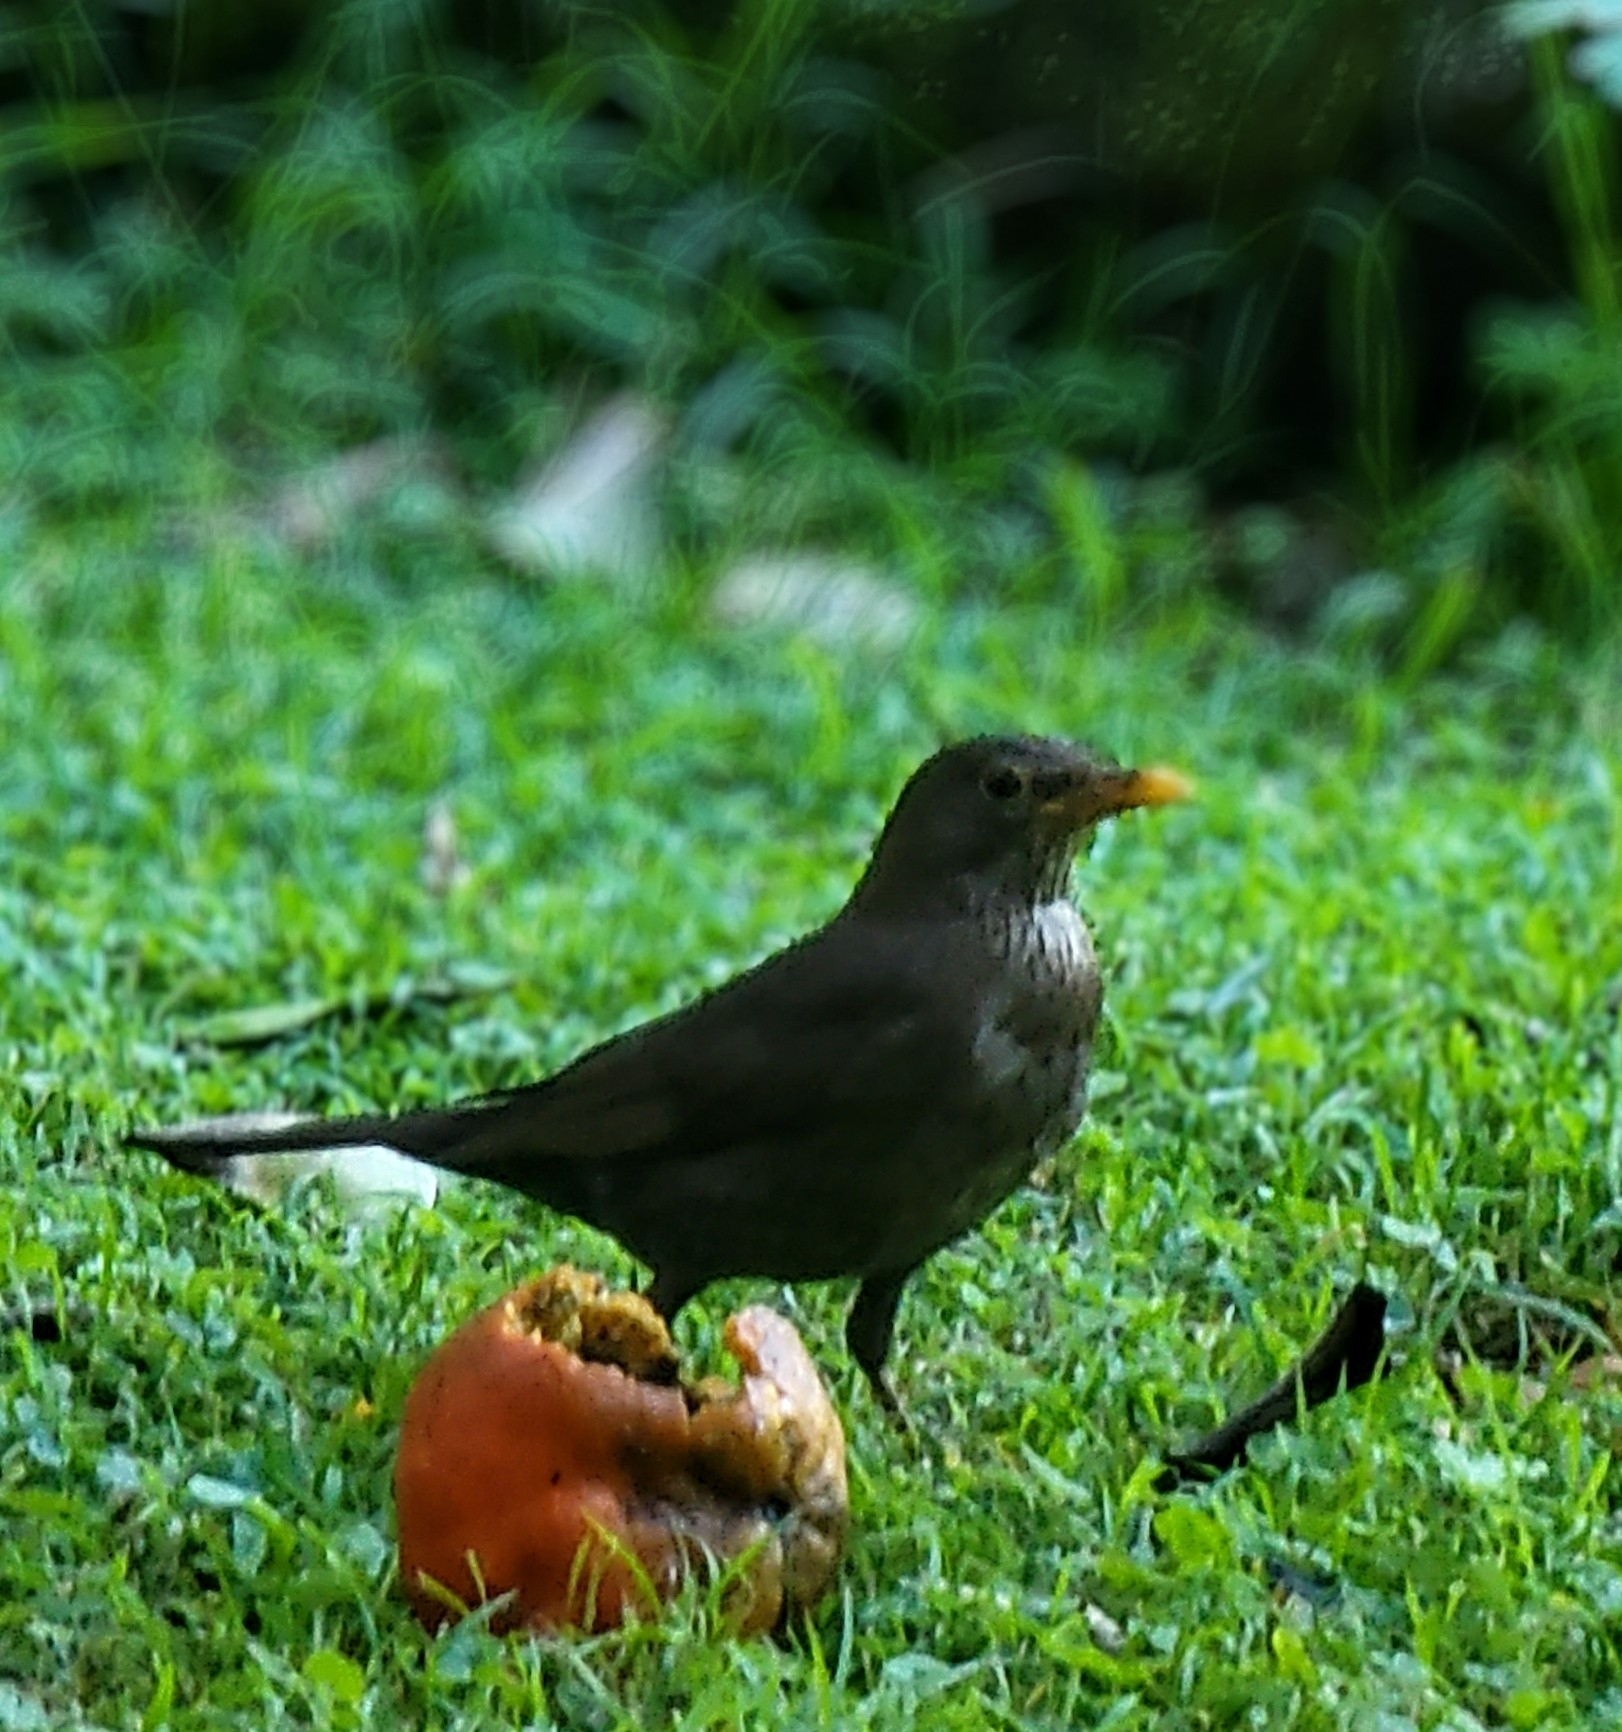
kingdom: Animalia
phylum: Chordata
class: Aves
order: Passeriformes
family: Turdidae
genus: Turdus
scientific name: Turdus merula
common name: Common blackbird
